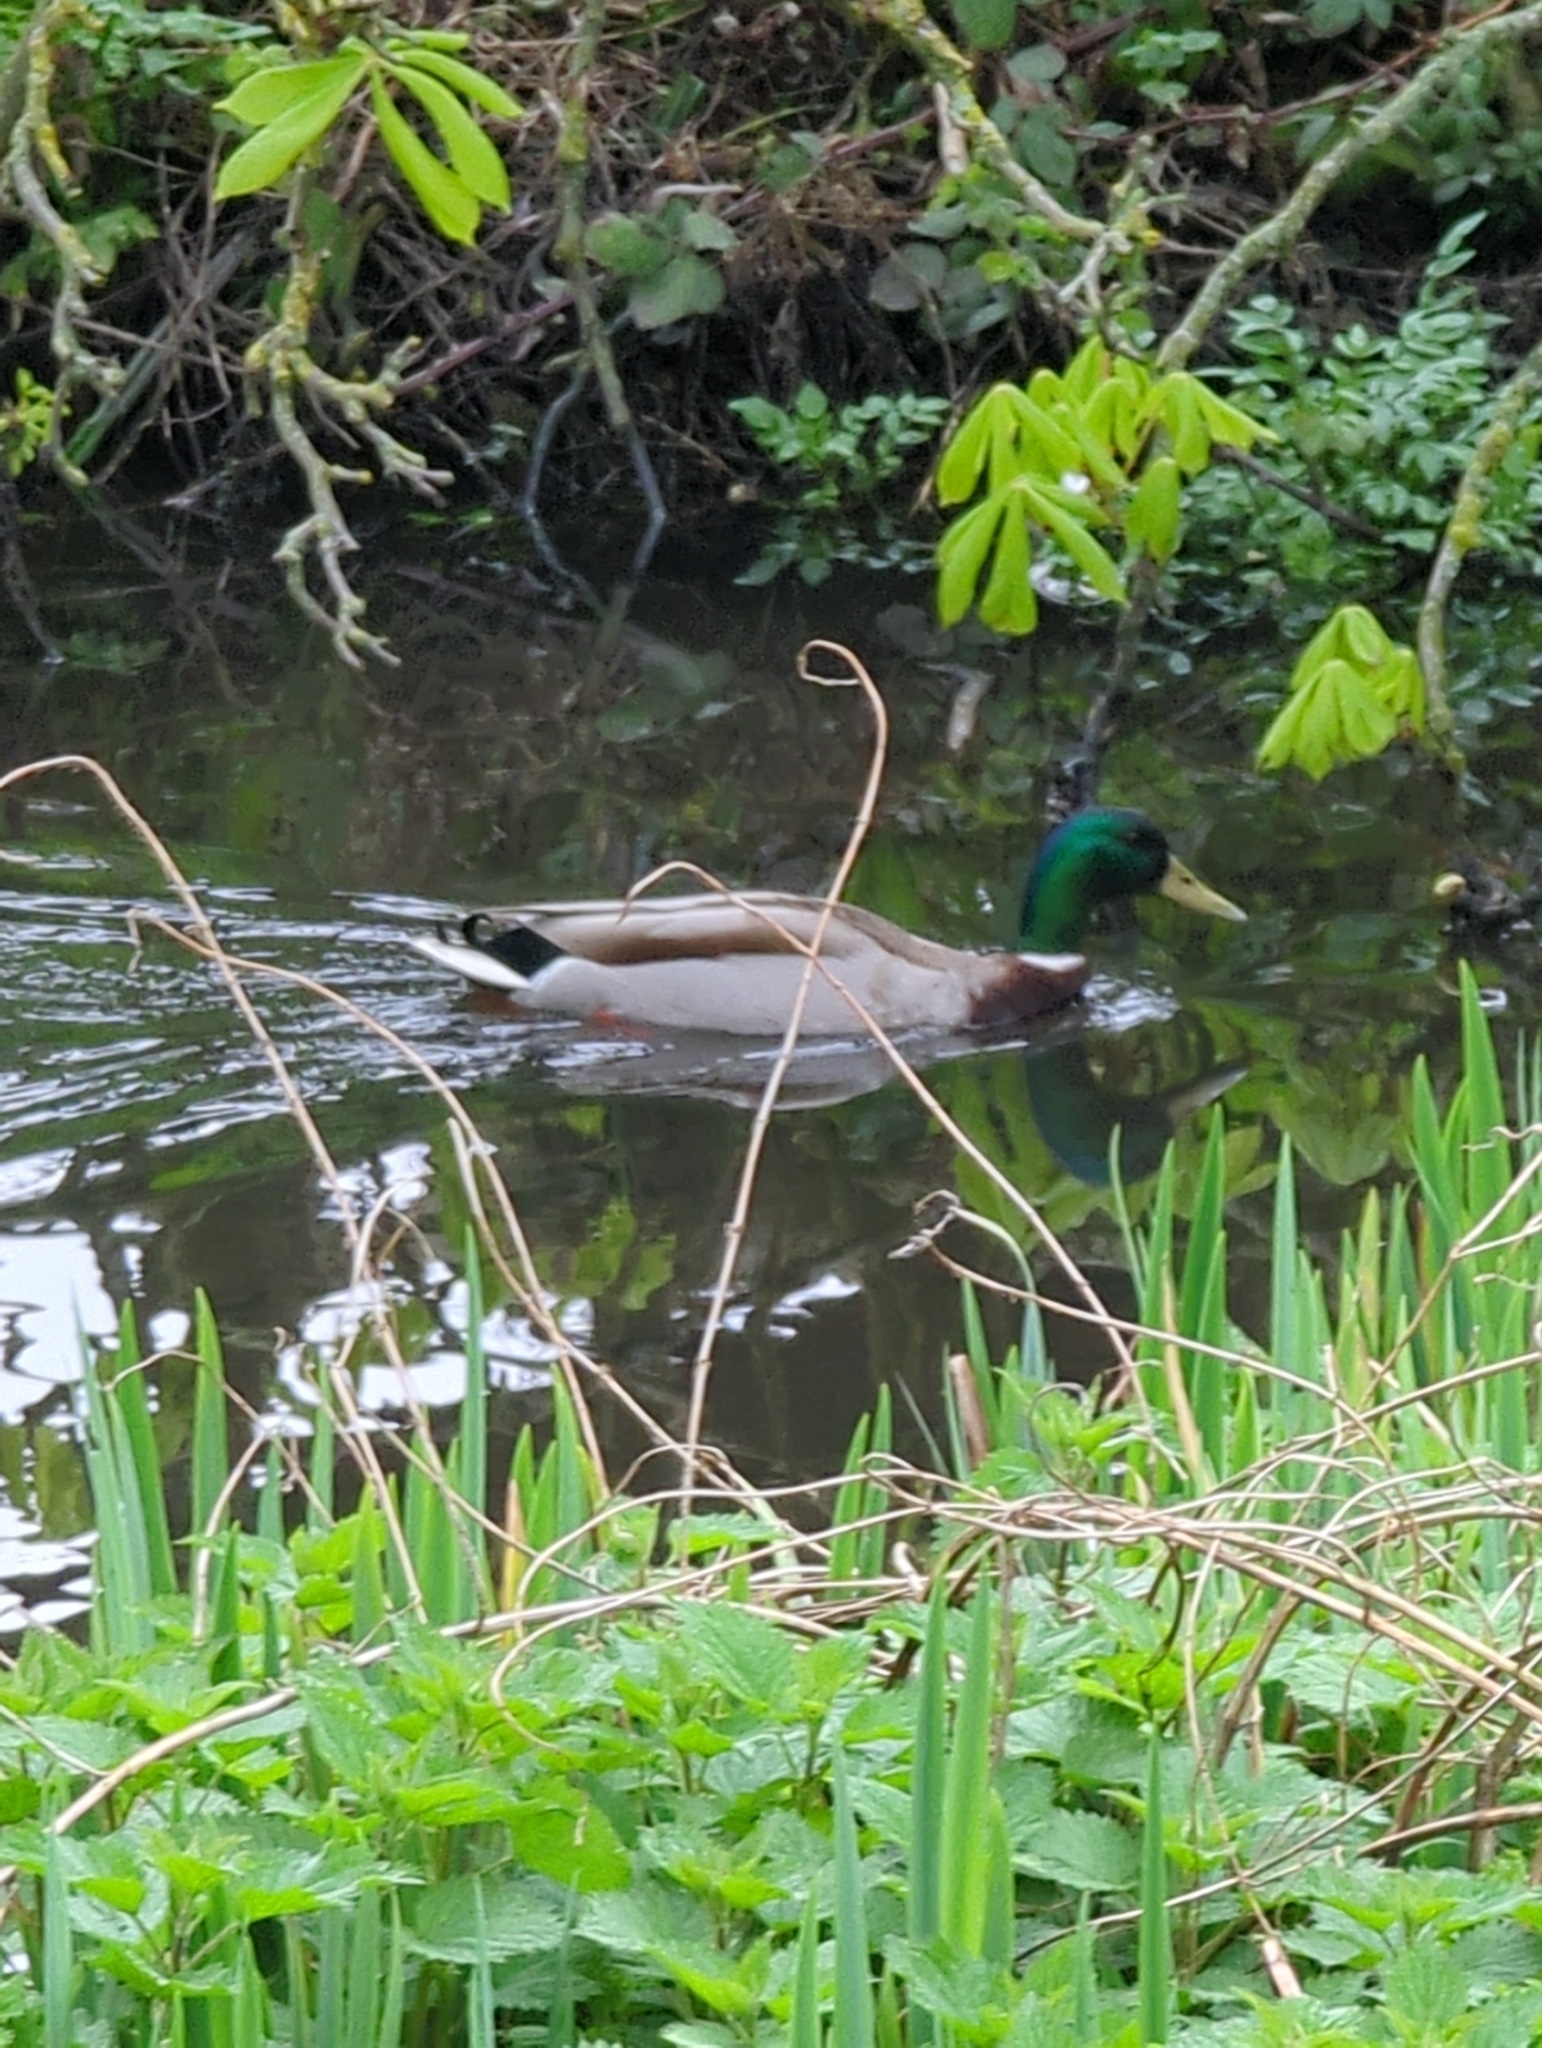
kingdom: Animalia
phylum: Chordata
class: Aves
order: Anseriformes
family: Anatidae
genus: Anas
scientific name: Anas platyrhynchos
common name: Mallard
